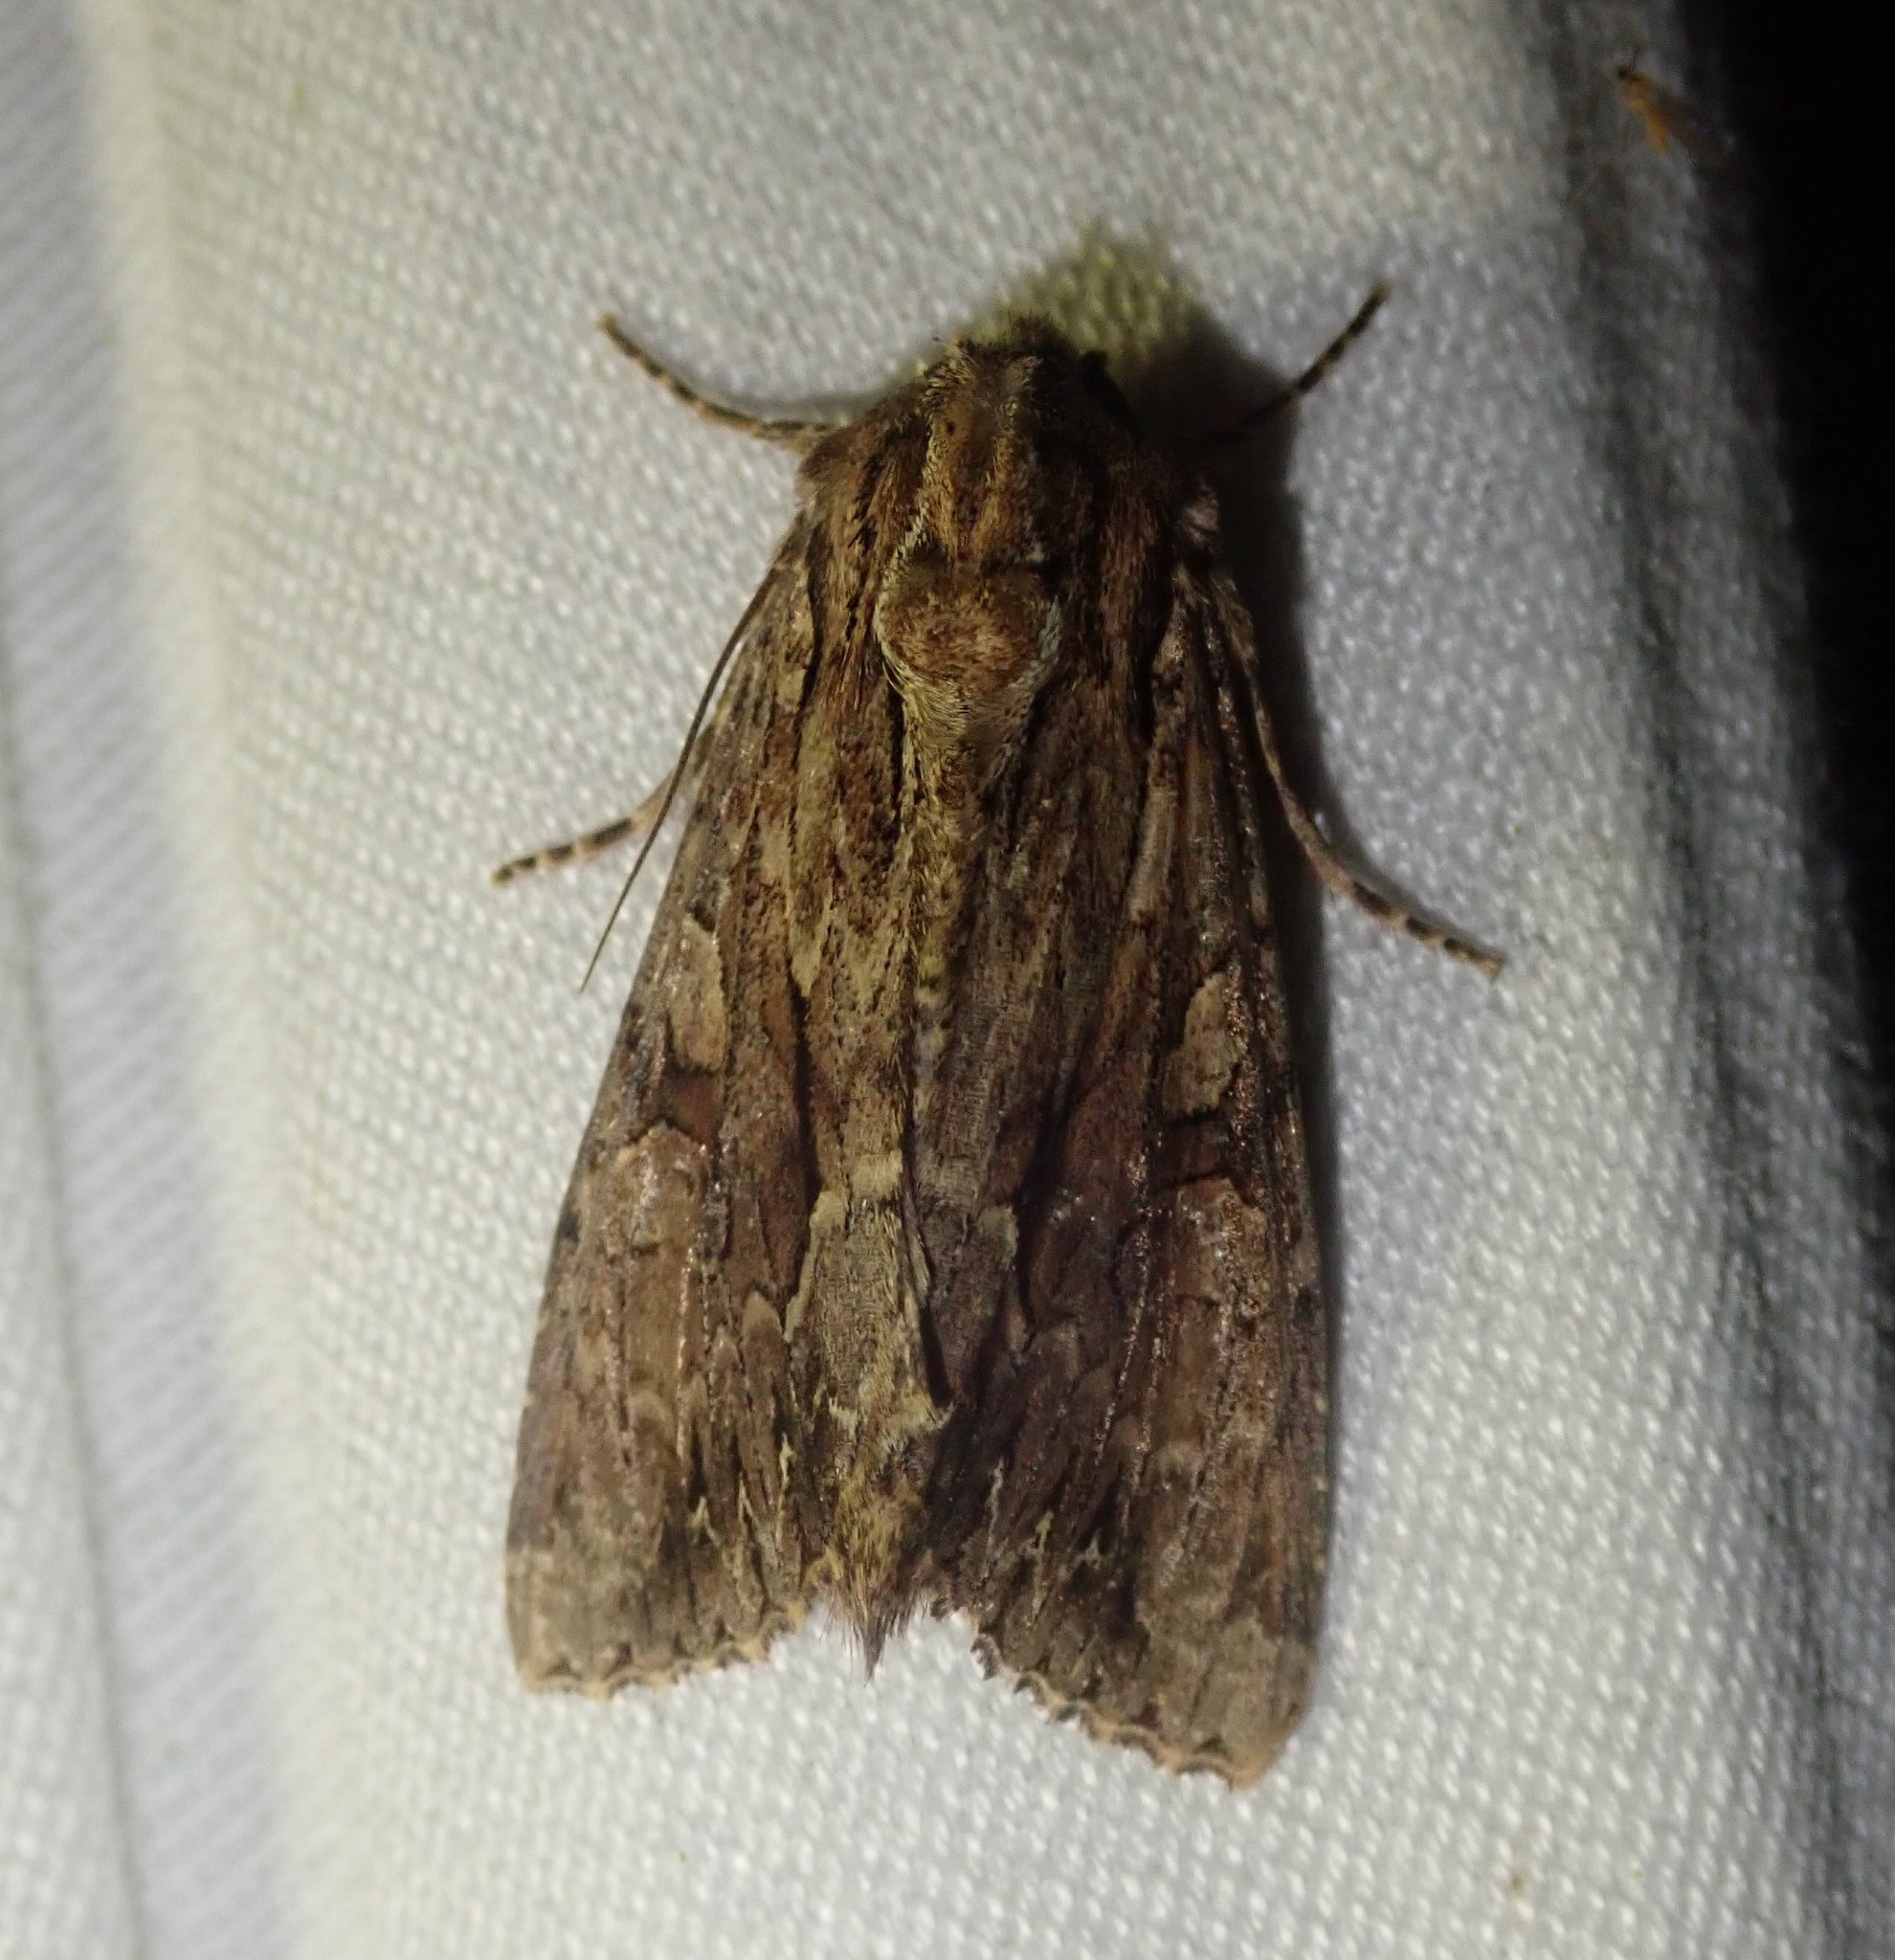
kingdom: Animalia
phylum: Arthropoda
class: Insecta
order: Lepidoptera
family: Noctuidae
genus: Apamea
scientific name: Apamea monoglypha
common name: Dark arches
